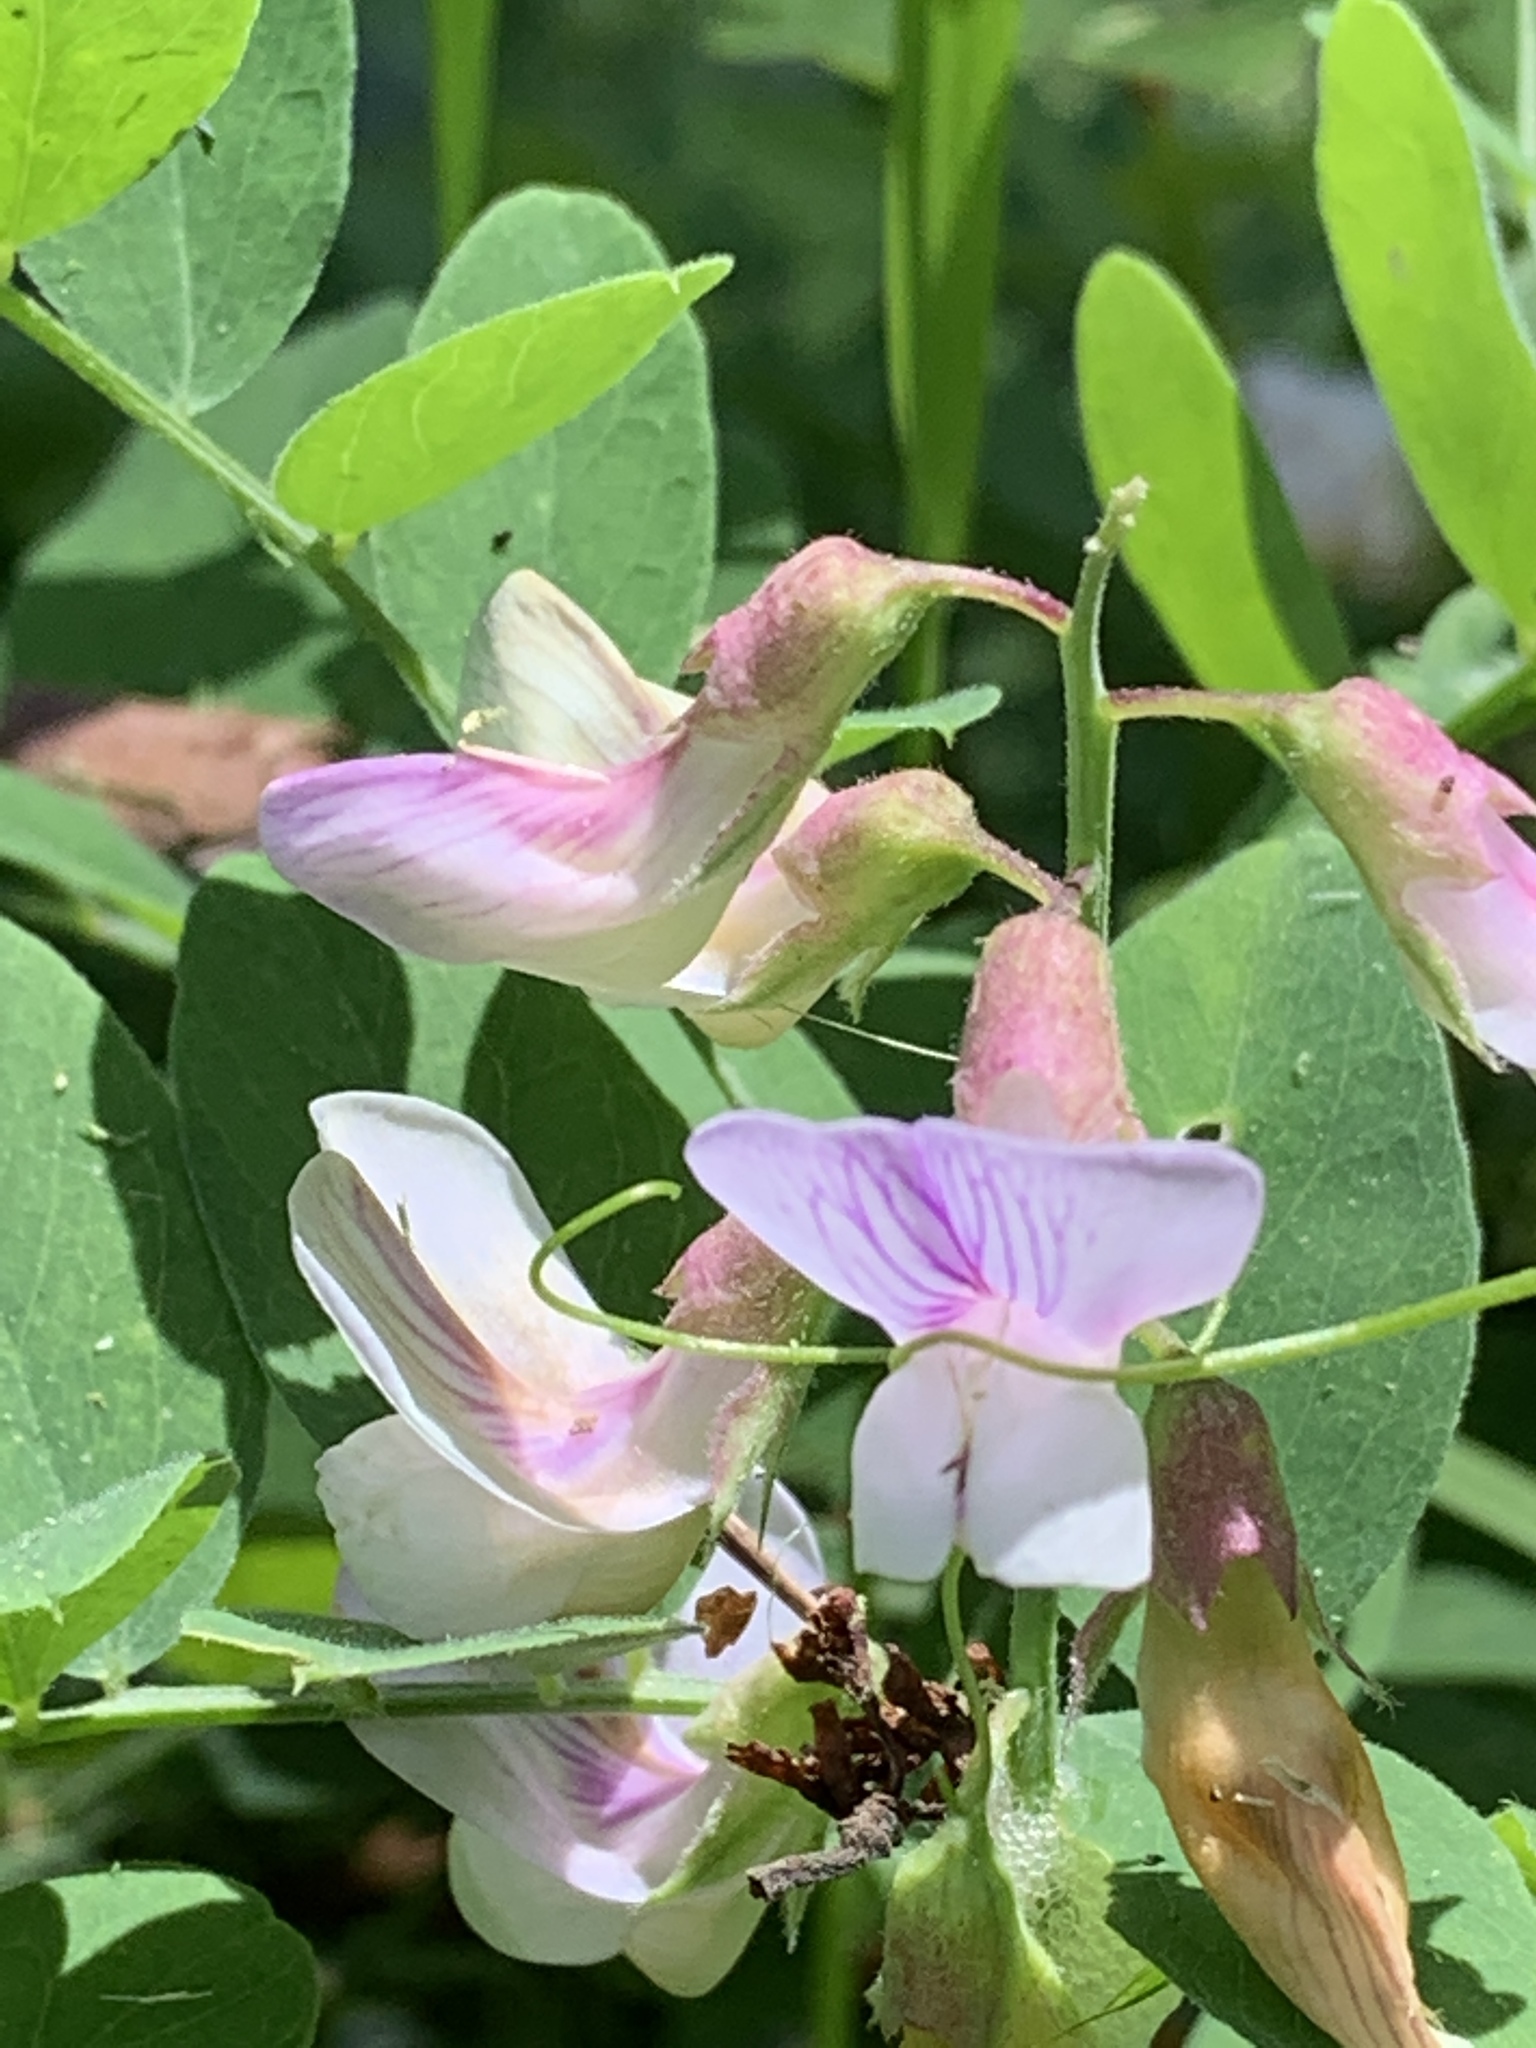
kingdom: Plantae
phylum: Tracheophyta
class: Magnoliopsida
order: Fabales
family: Fabaceae
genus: Lathyrus
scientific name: Lathyrus vestitus
